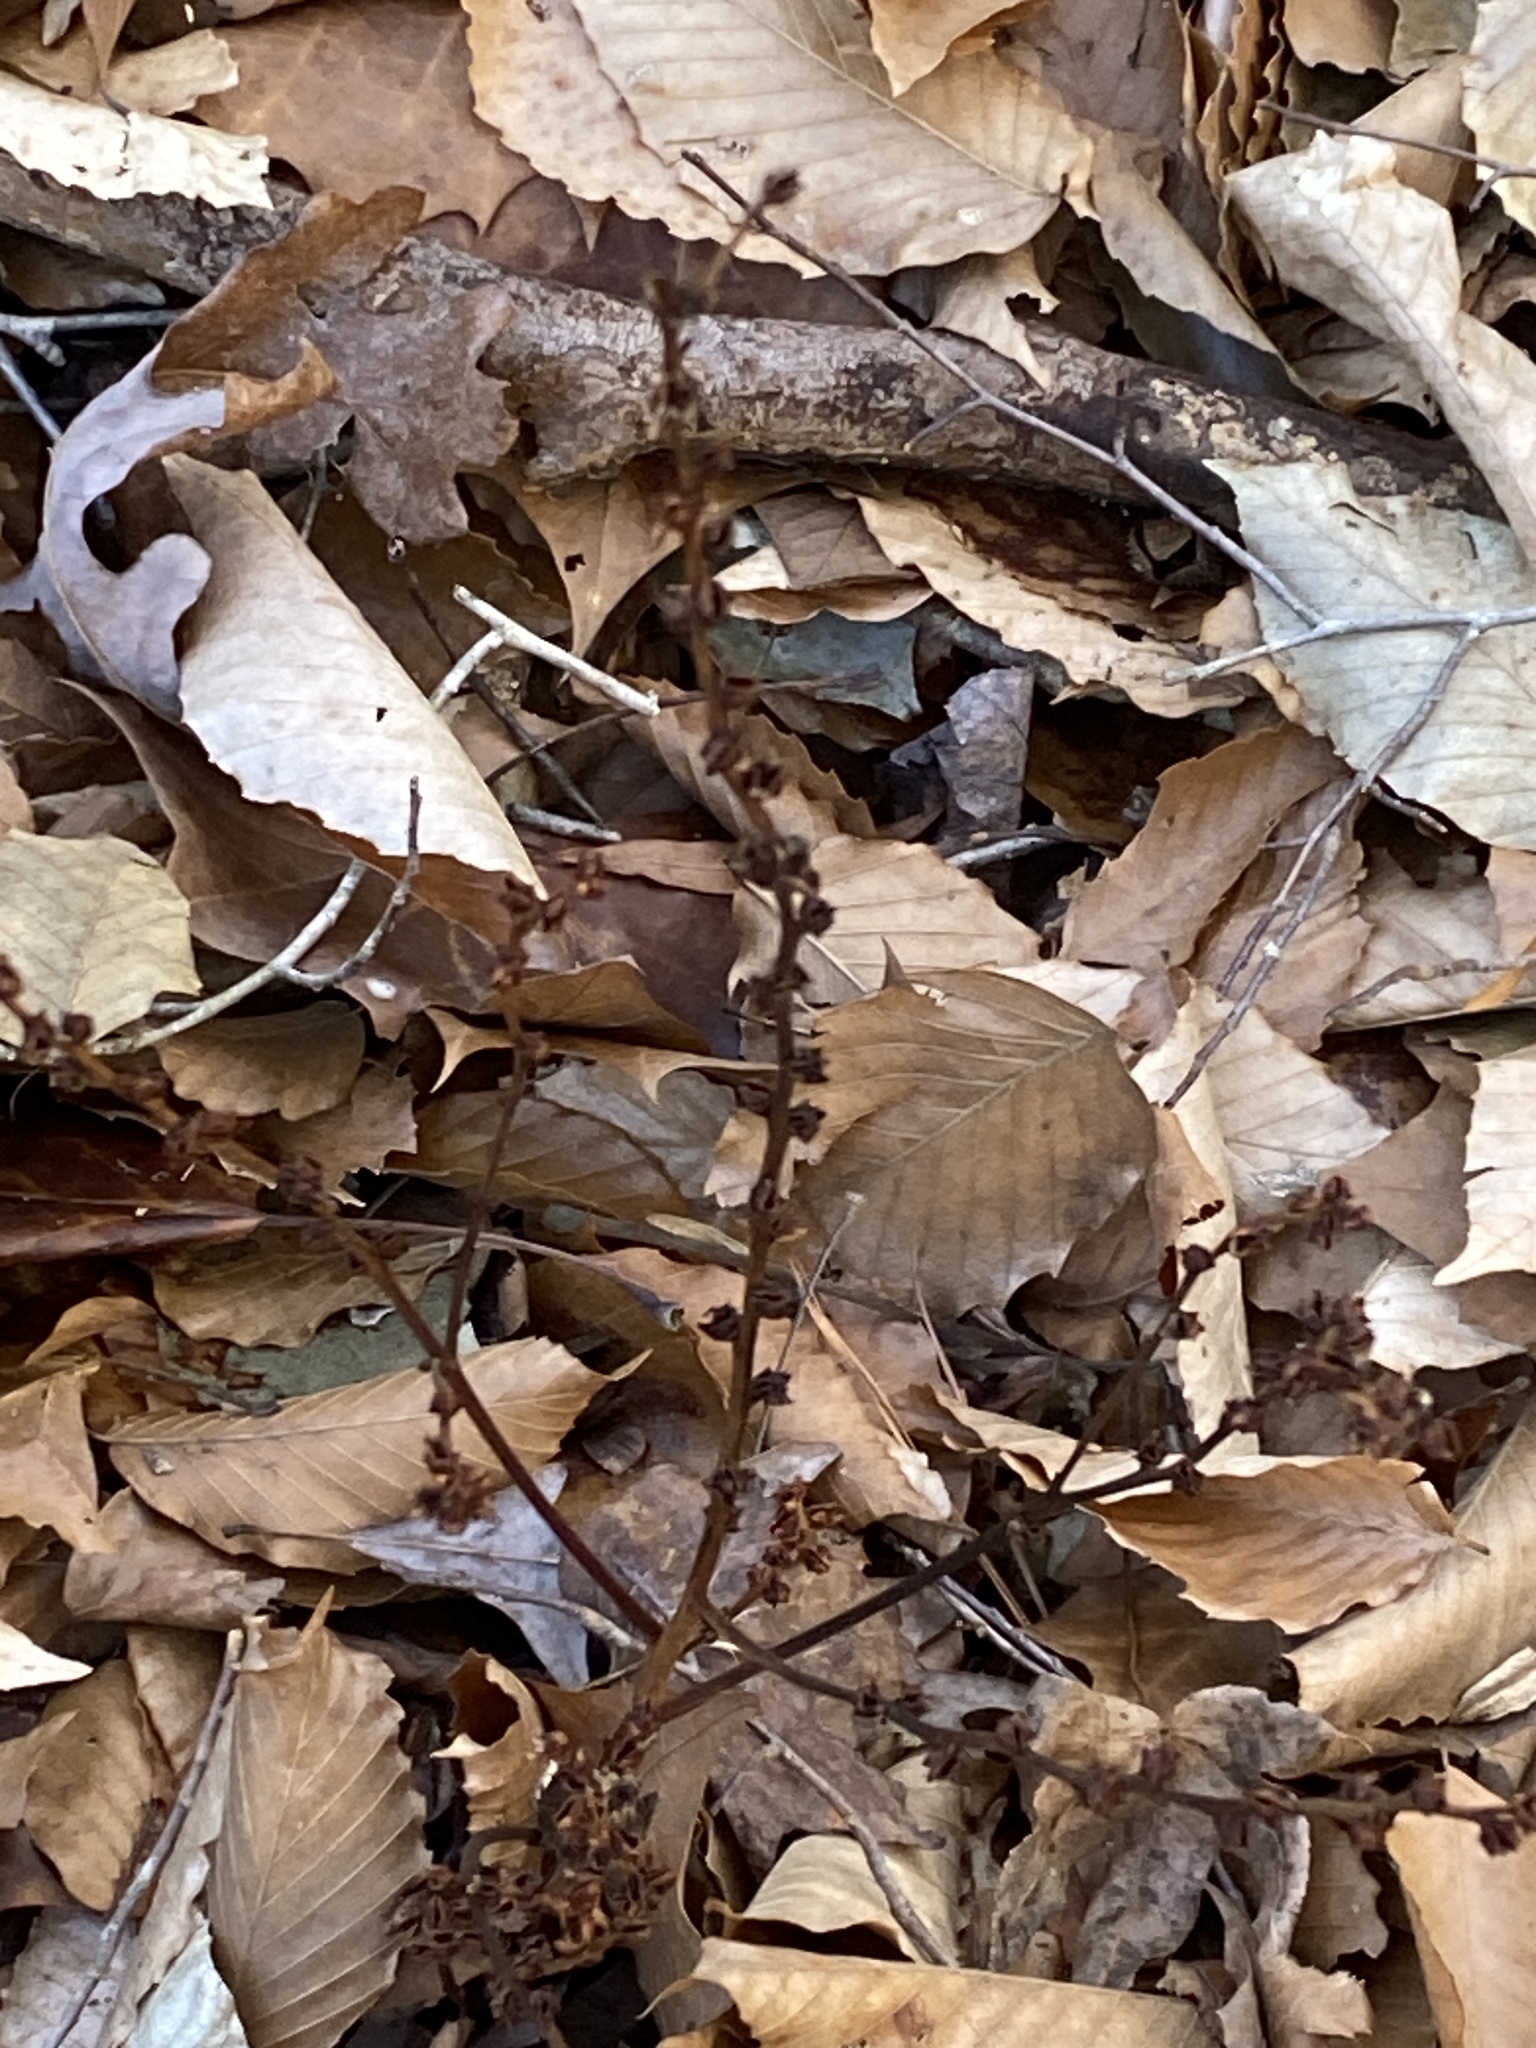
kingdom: Plantae
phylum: Tracheophyta
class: Magnoliopsida
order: Lamiales
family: Orobanchaceae
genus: Epifagus
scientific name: Epifagus virginiana
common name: Beechdrops
